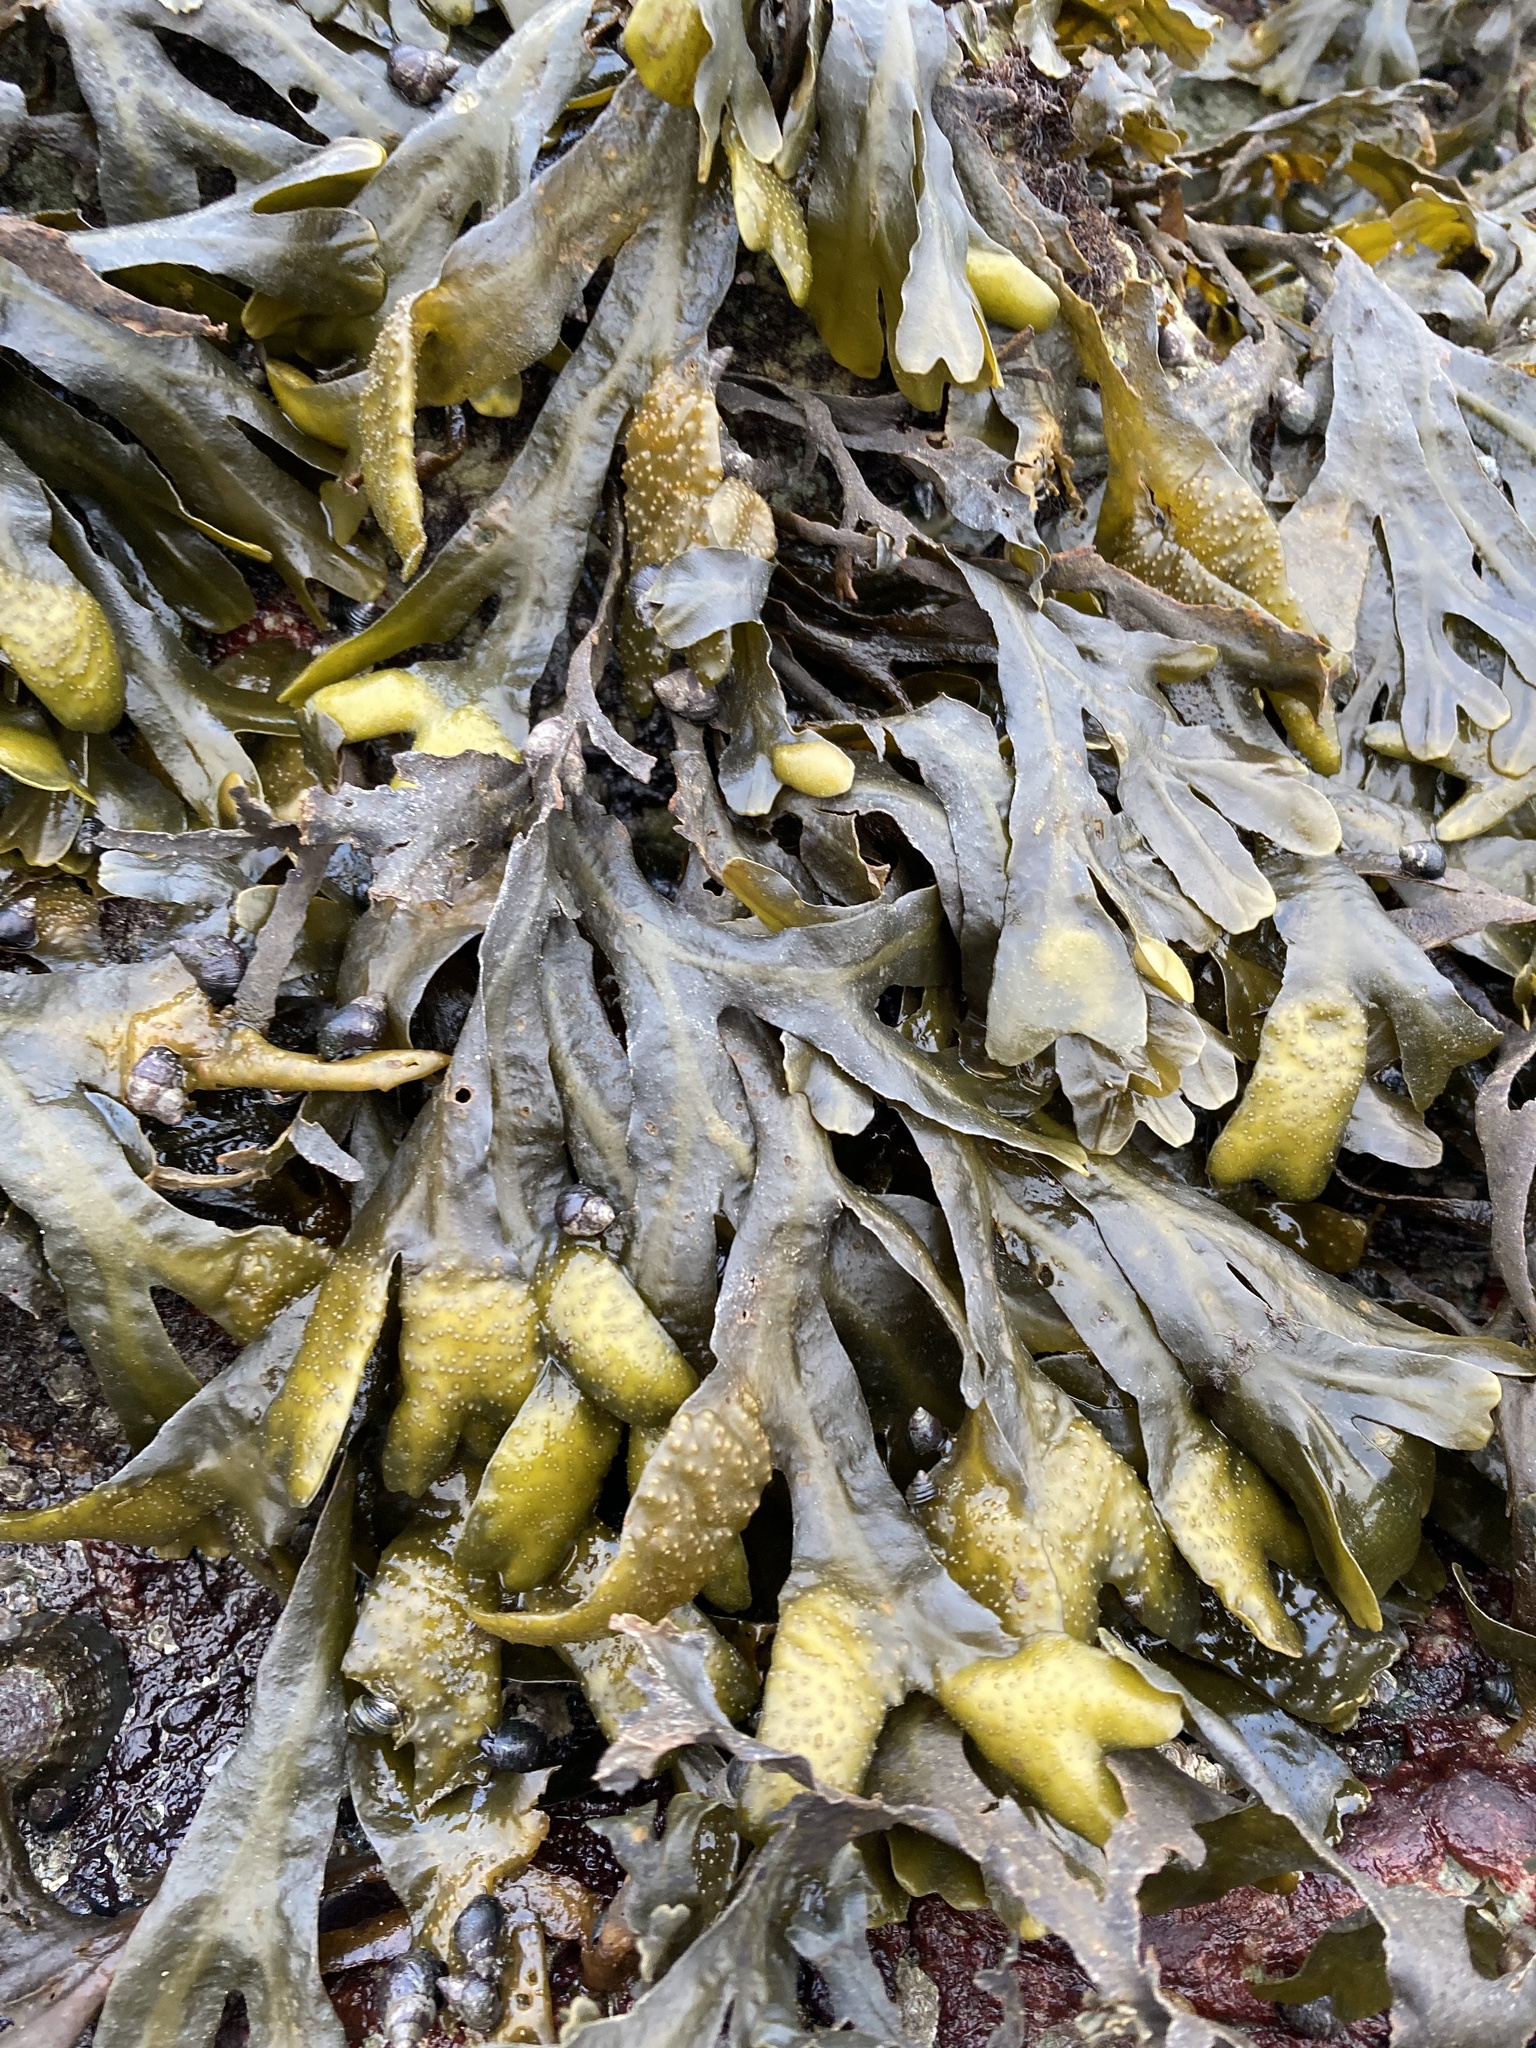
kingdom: Chromista
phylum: Ochrophyta
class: Phaeophyceae
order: Fucales
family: Fucaceae
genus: Fucus
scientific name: Fucus distichus
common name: Rockweed
